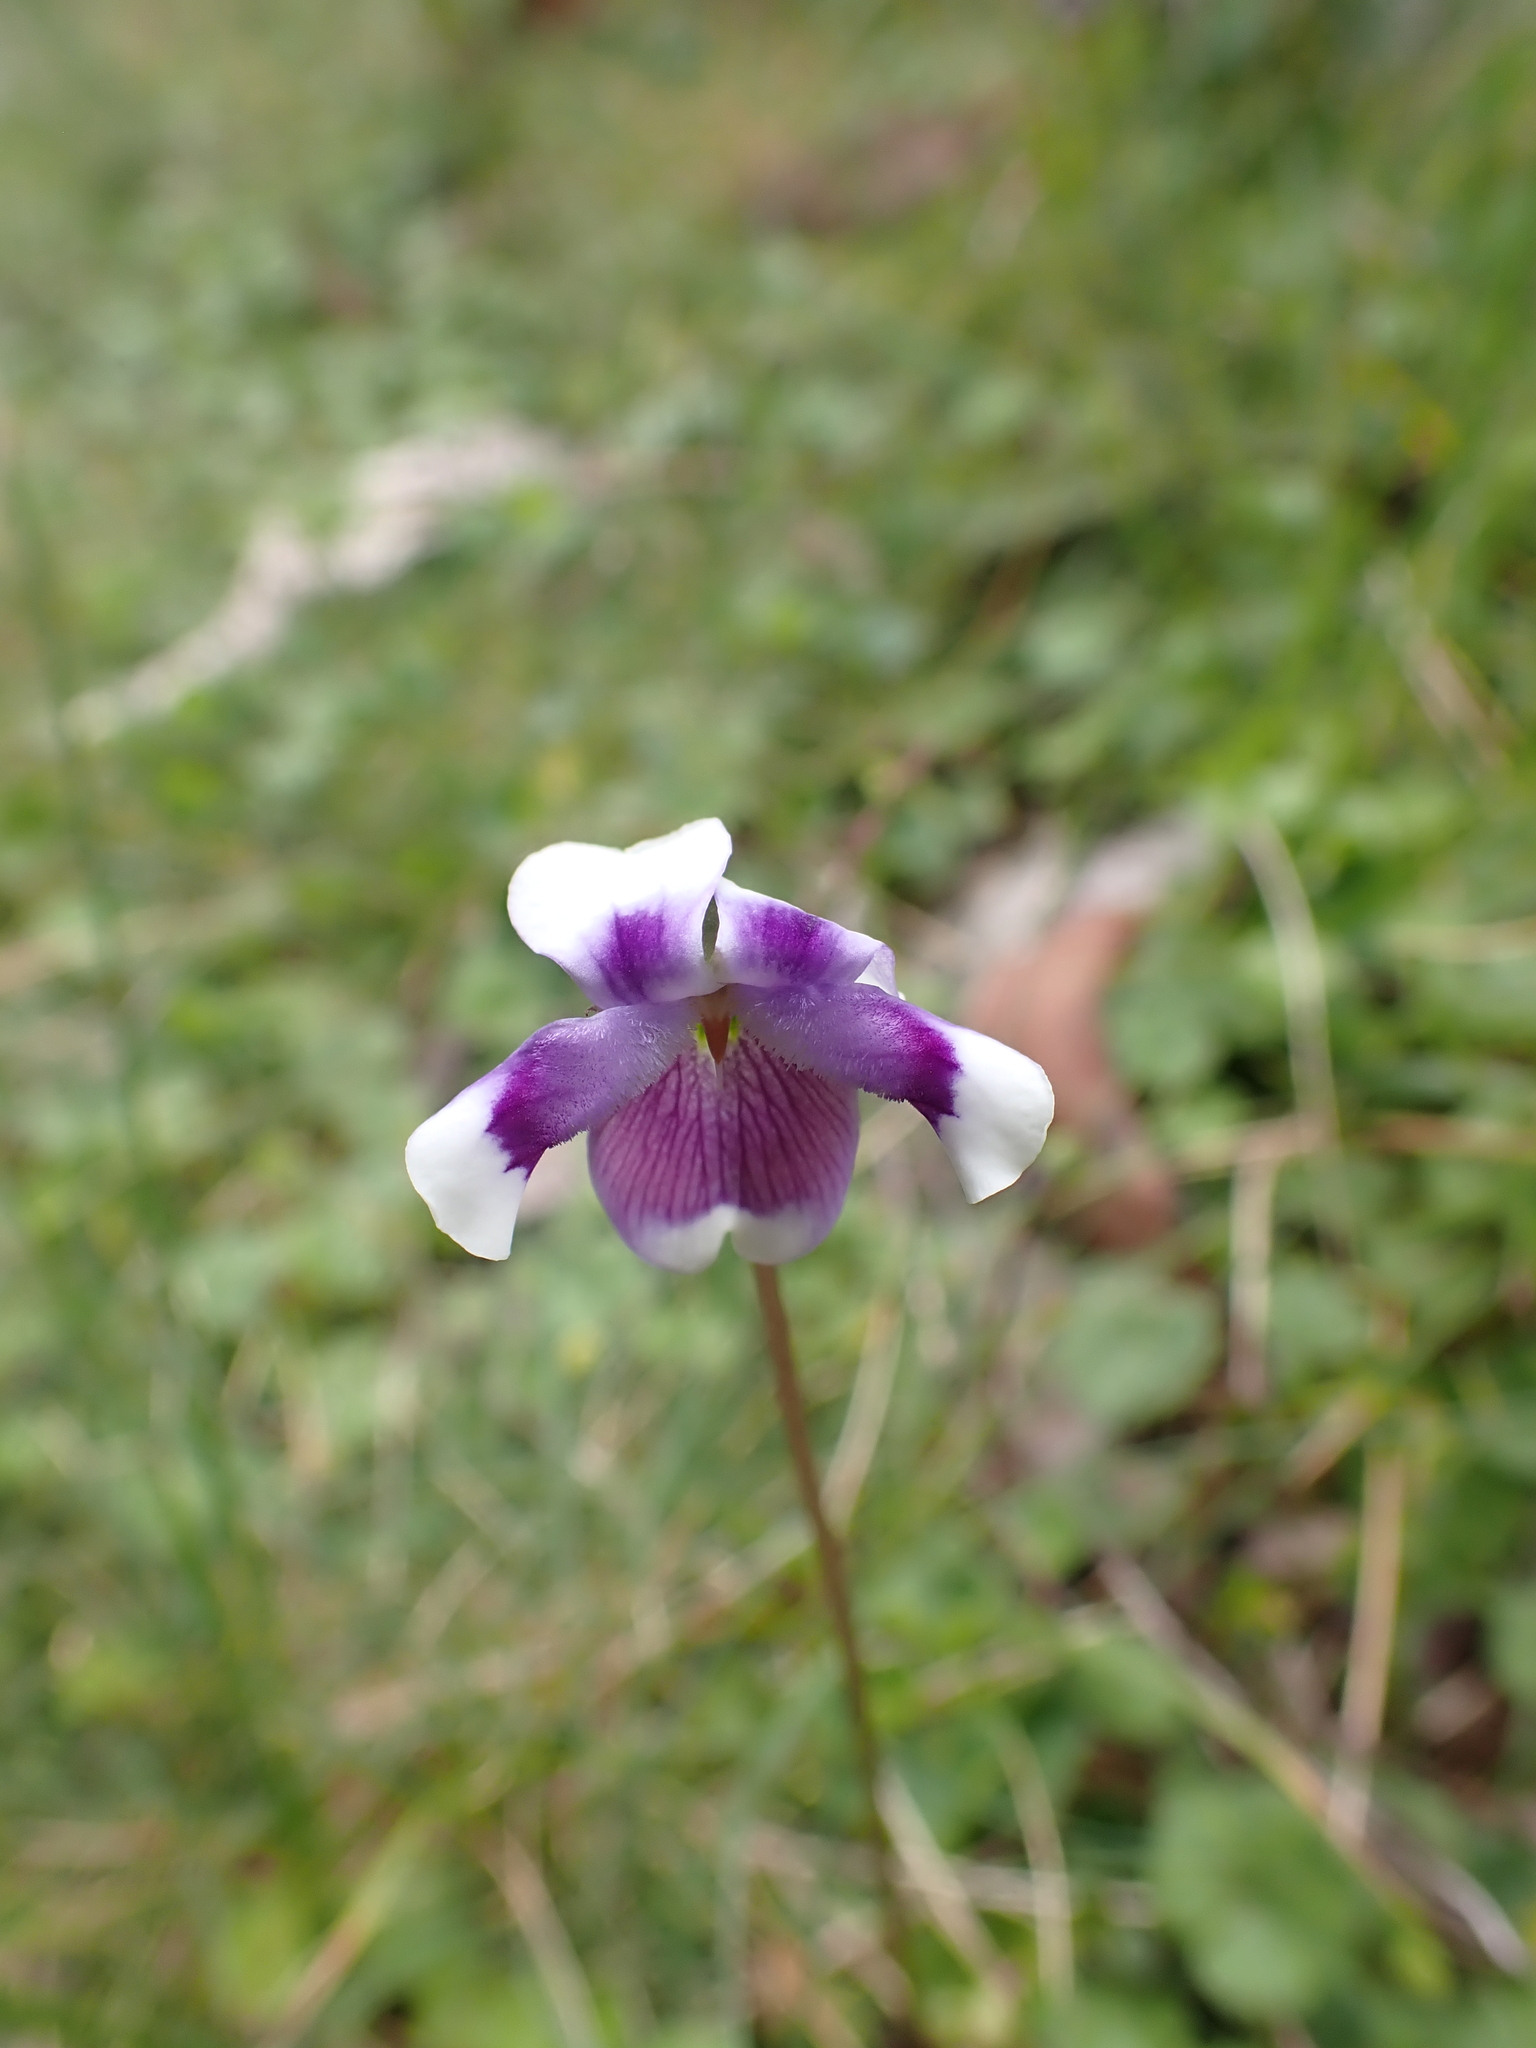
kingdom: Plantae
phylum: Tracheophyta
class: Magnoliopsida
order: Malpighiales
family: Violaceae
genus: Viola
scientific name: Viola eminens
